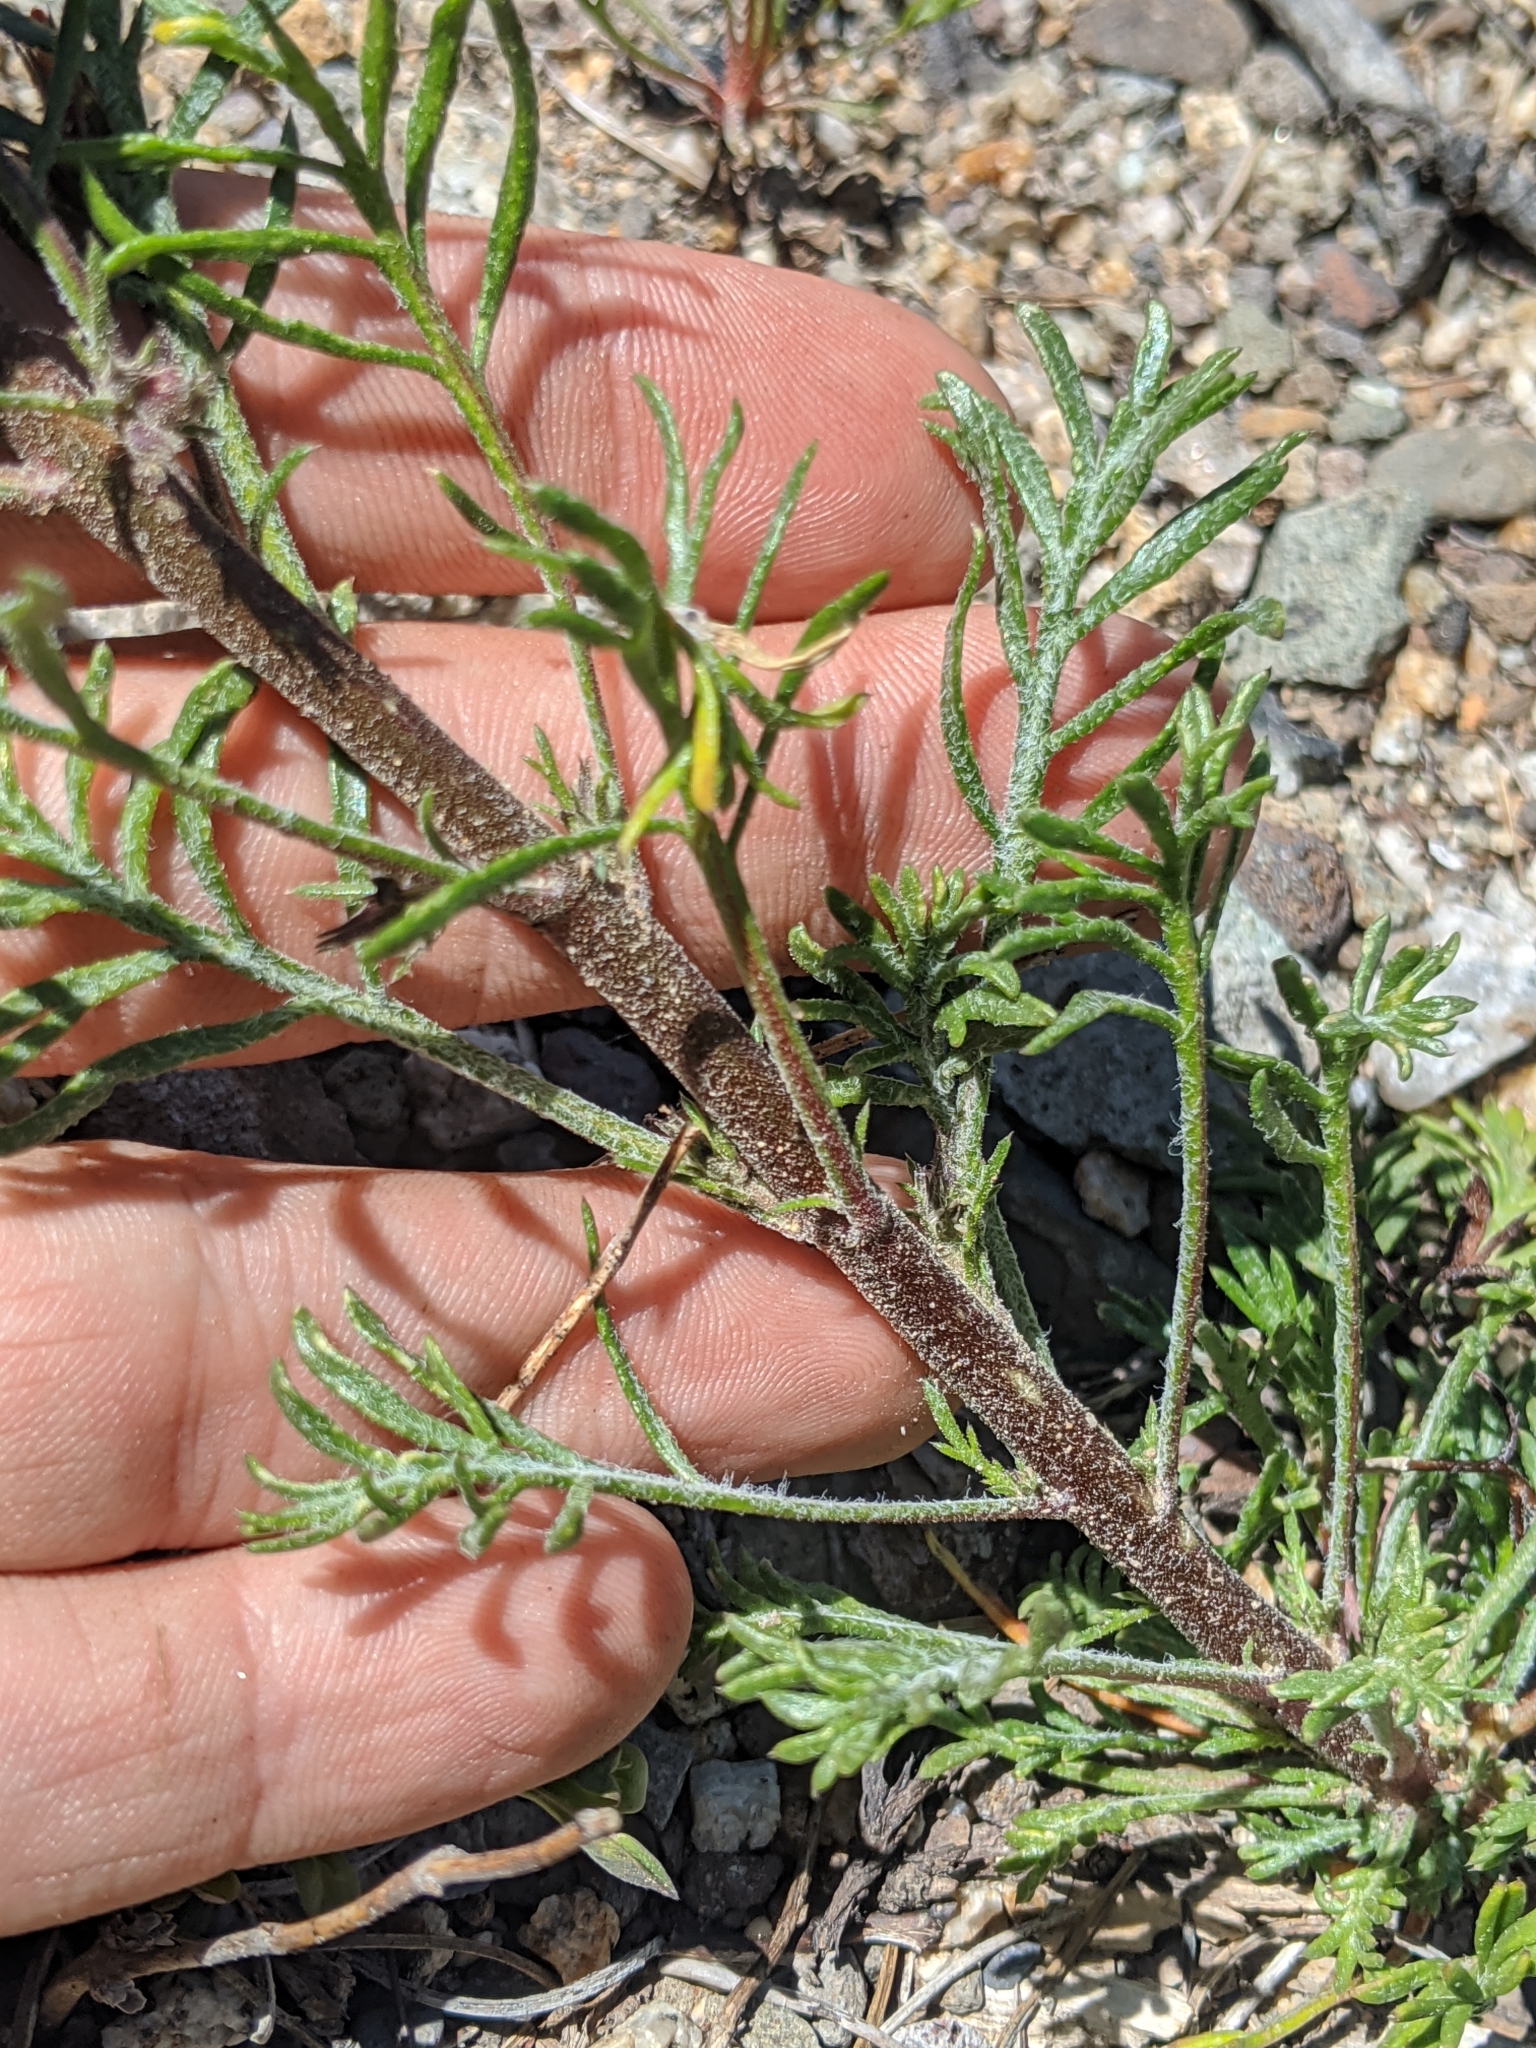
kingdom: Plantae
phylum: Tracheophyta
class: Magnoliopsida
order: Ericales
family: Polemoniaceae
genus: Ipomopsis
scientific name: Ipomopsis tenuituba
